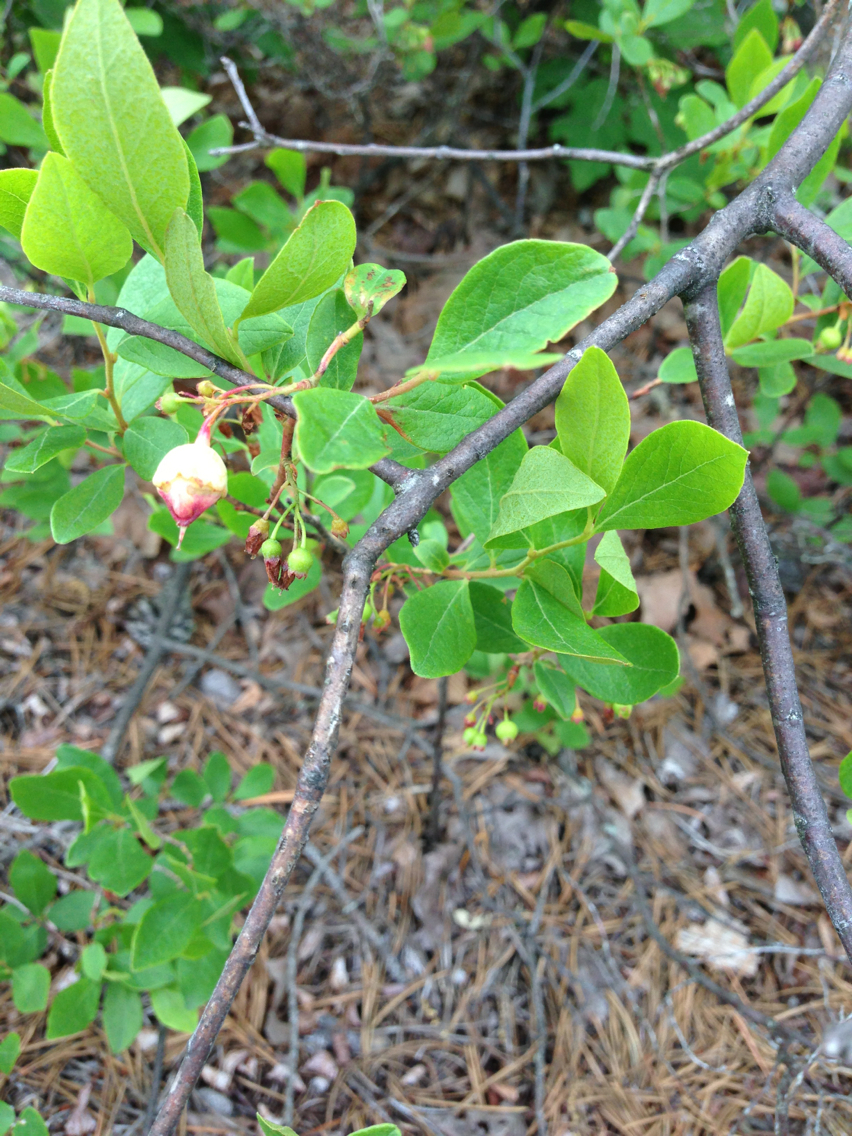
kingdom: Plantae
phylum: Tracheophyta
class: Magnoliopsida
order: Ericales
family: Ericaceae
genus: Gaylussacia
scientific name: Gaylussacia baccata
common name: Black huckleberry
